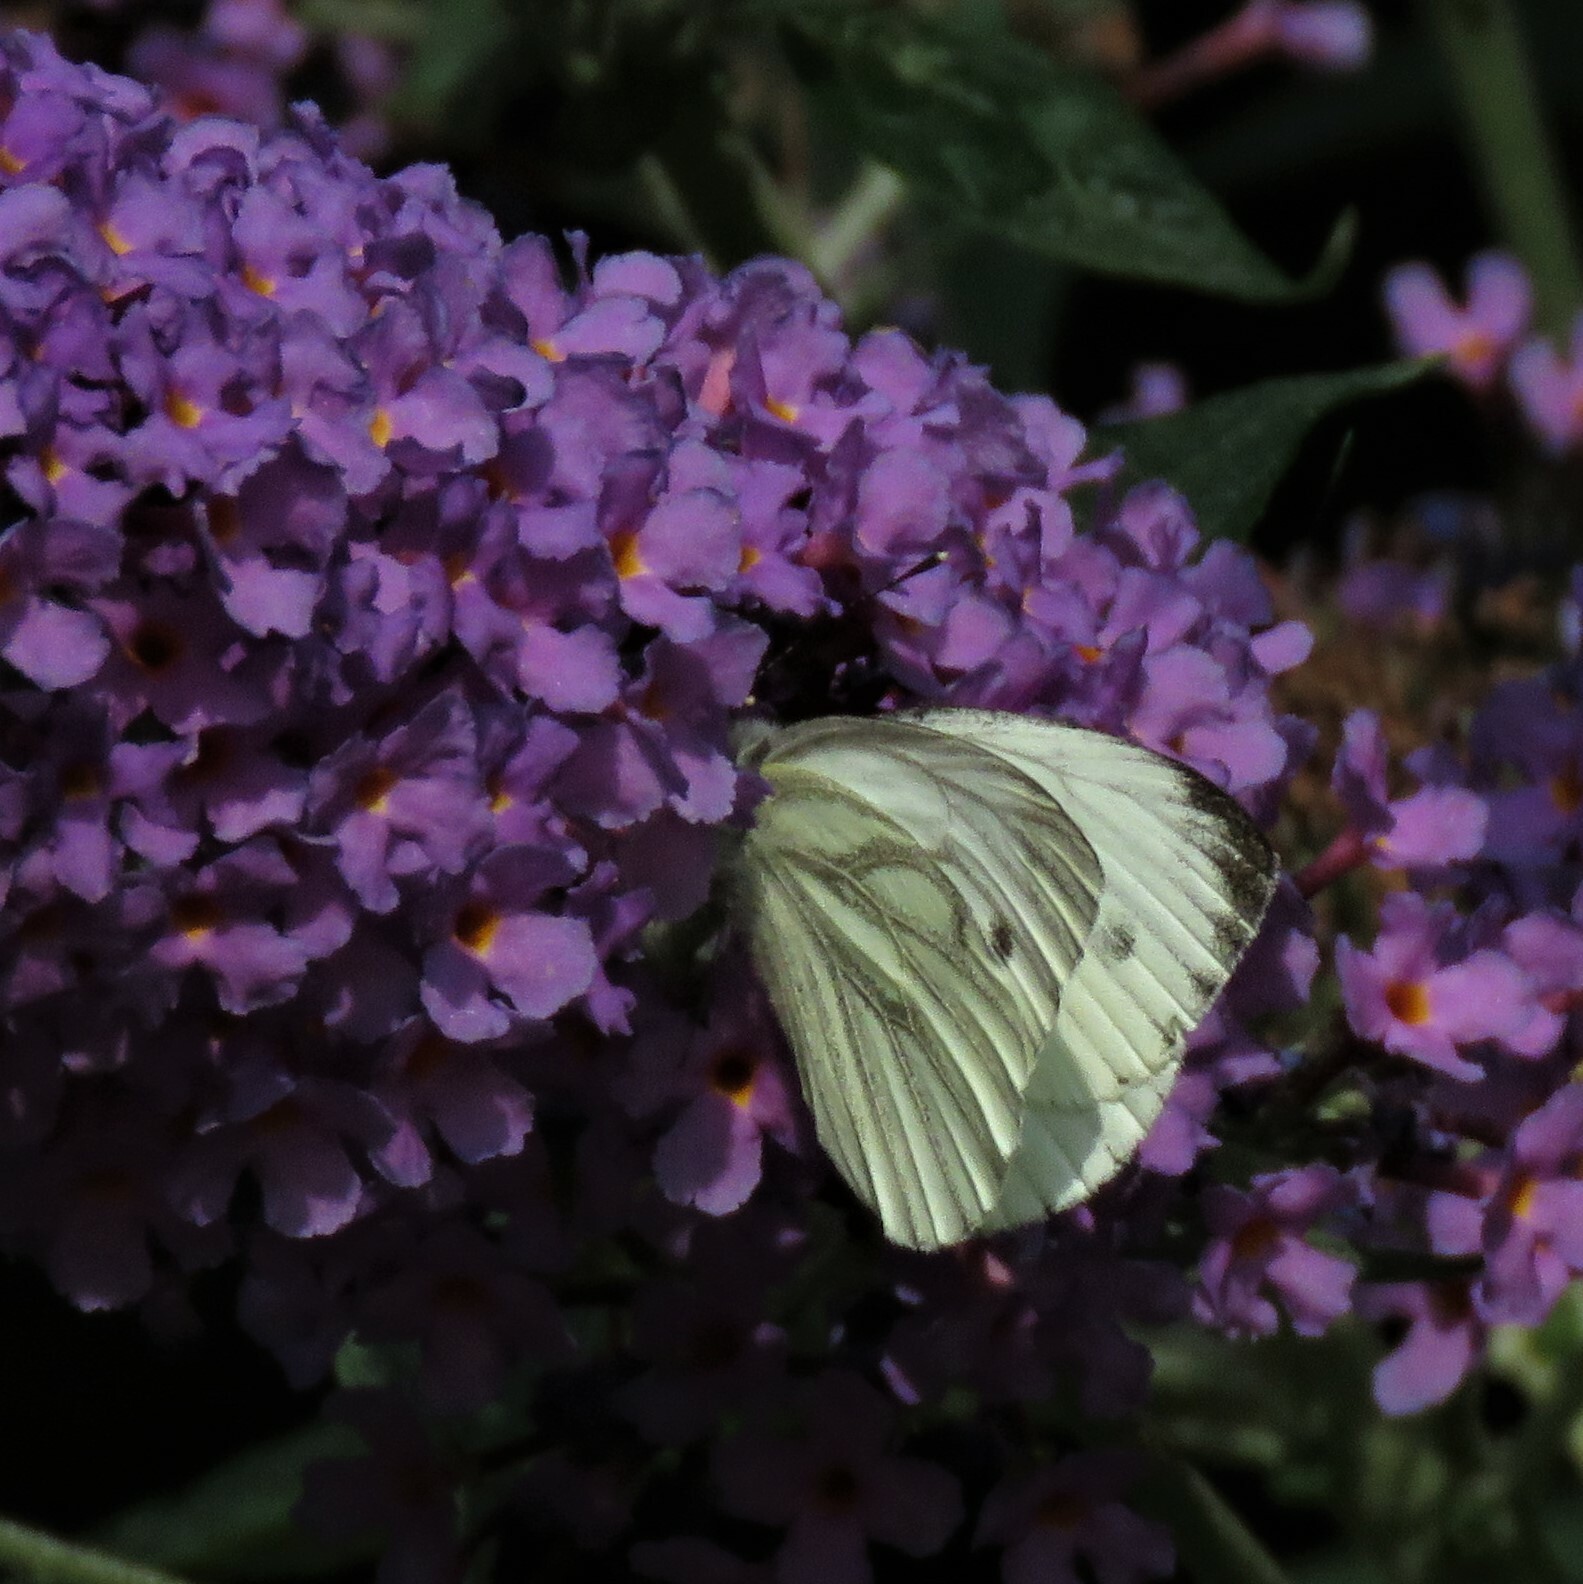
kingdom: Animalia
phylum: Arthropoda
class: Insecta
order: Lepidoptera
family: Pieridae
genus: Pieris
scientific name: Pieris napi
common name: Green-veined white
